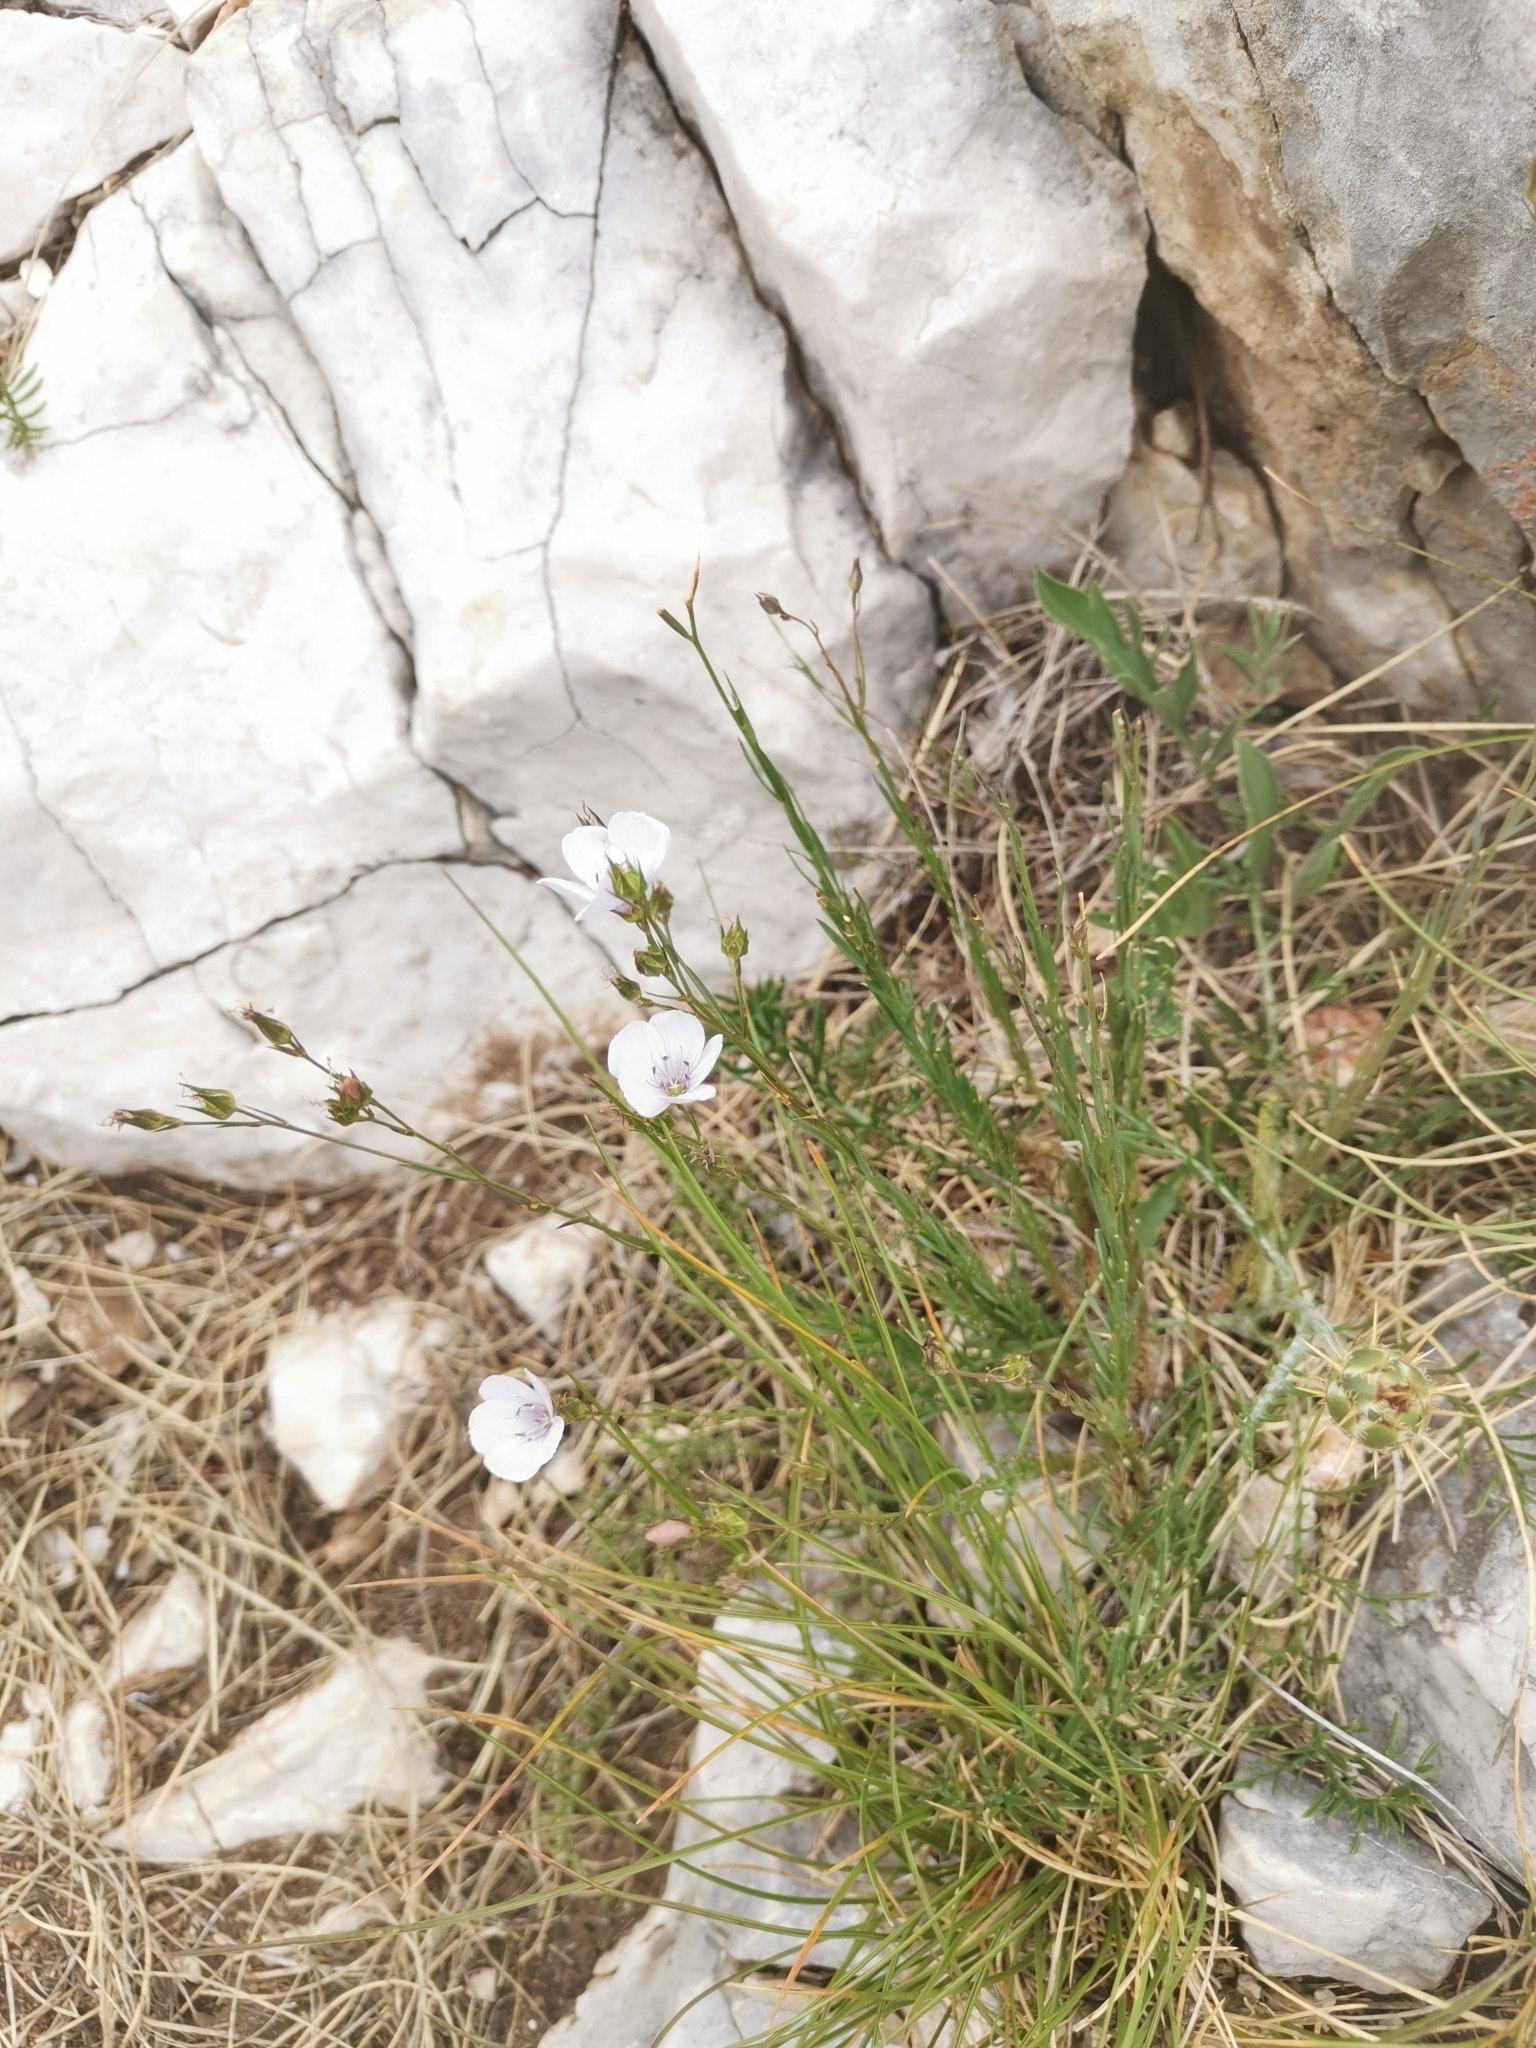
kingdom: Plantae
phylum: Tracheophyta
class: Magnoliopsida
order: Malpighiales
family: Linaceae
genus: Linum
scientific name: Linum tenuifolium
